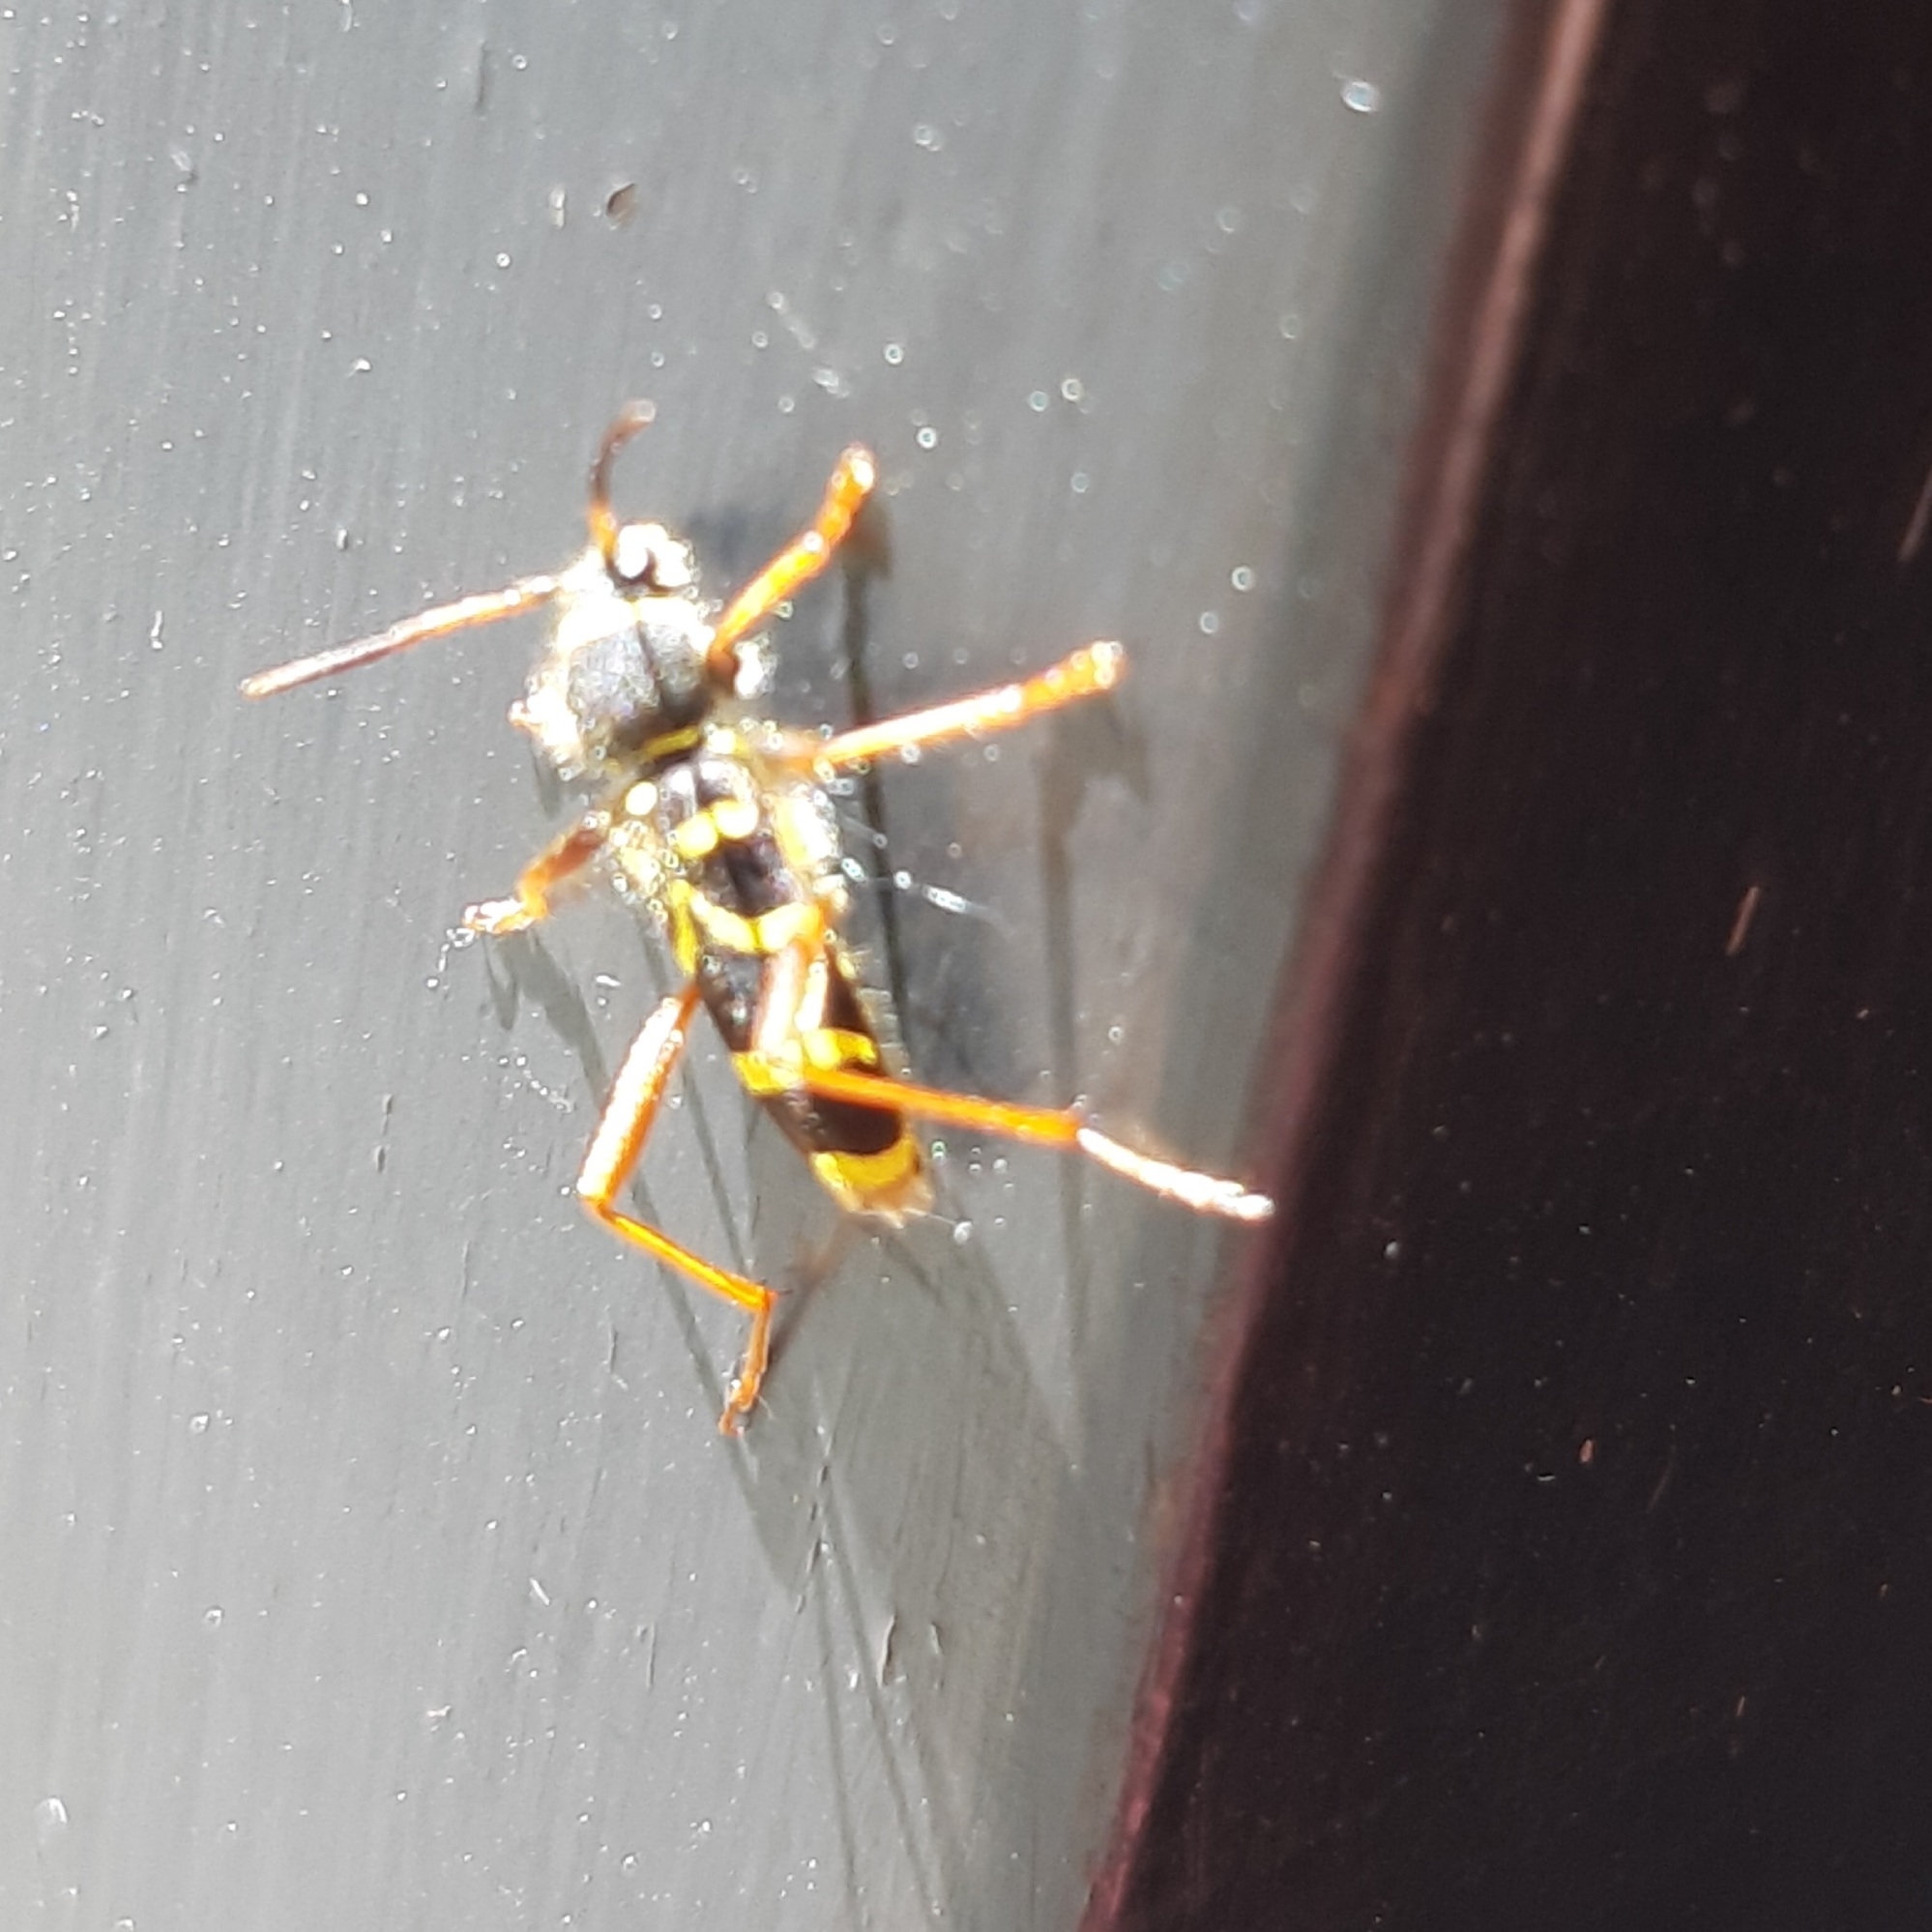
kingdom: Animalia
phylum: Arthropoda
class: Insecta
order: Coleoptera
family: Cerambycidae
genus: Clytus
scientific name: Clytus arietis
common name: Wasp beetle
